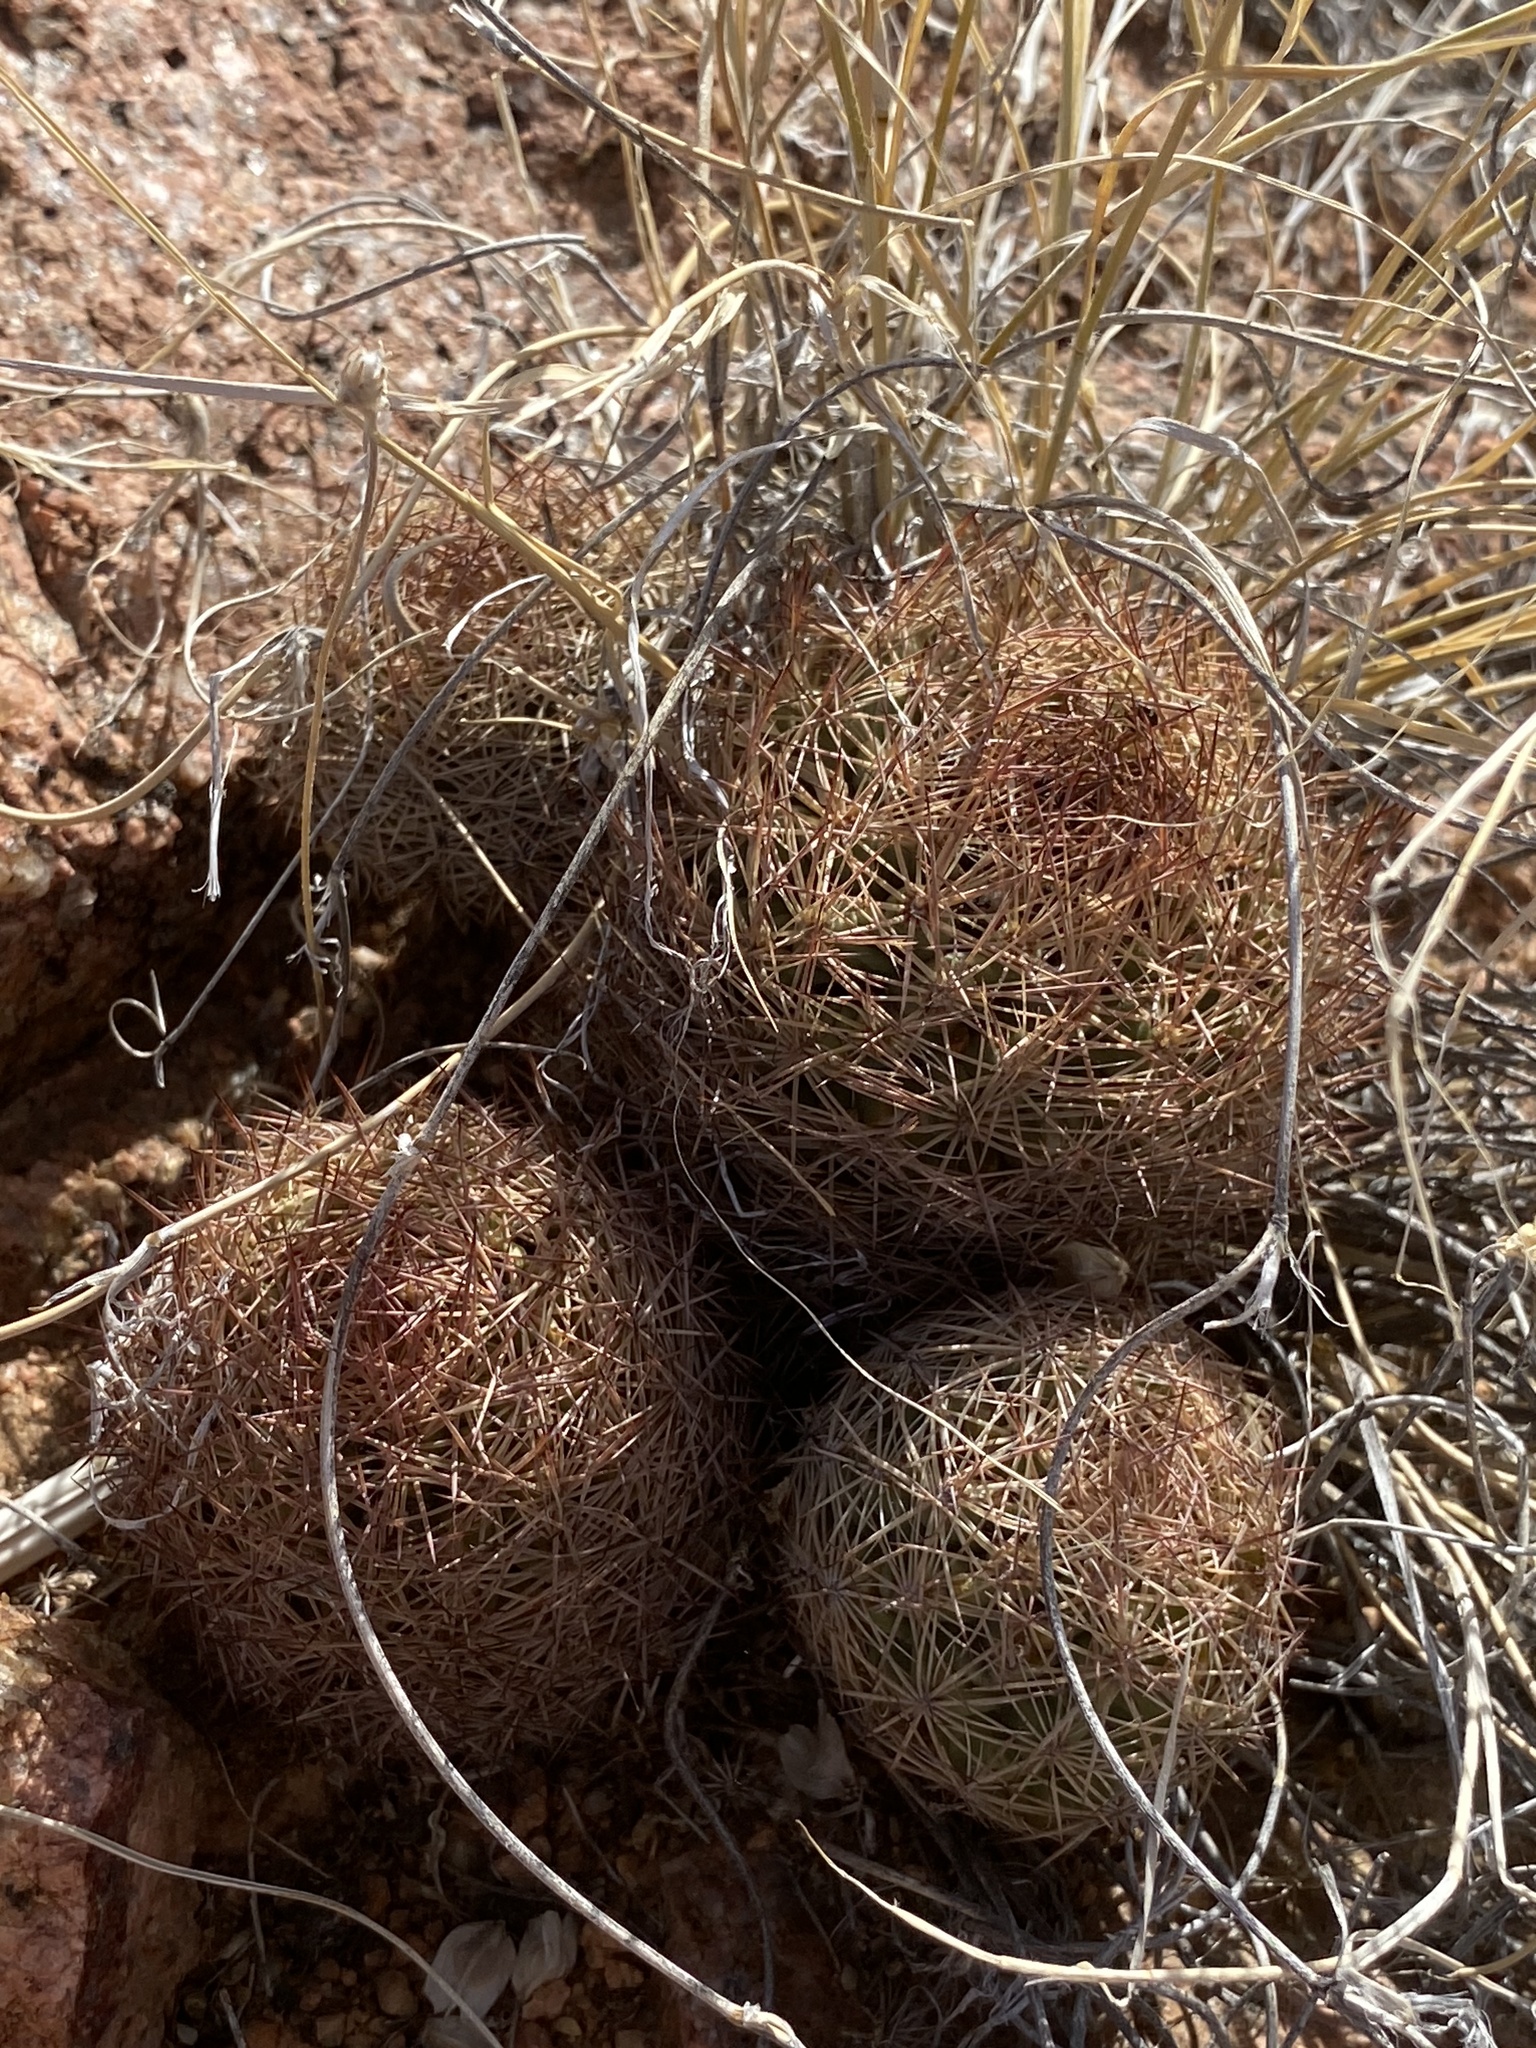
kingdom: Plantae
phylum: Tracheophyta
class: Magnoliopsida
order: Caryophyllales
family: Cactaceae
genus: Sclerocactus
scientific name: Sclerocactus intertextus
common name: White fish-hook cactus
